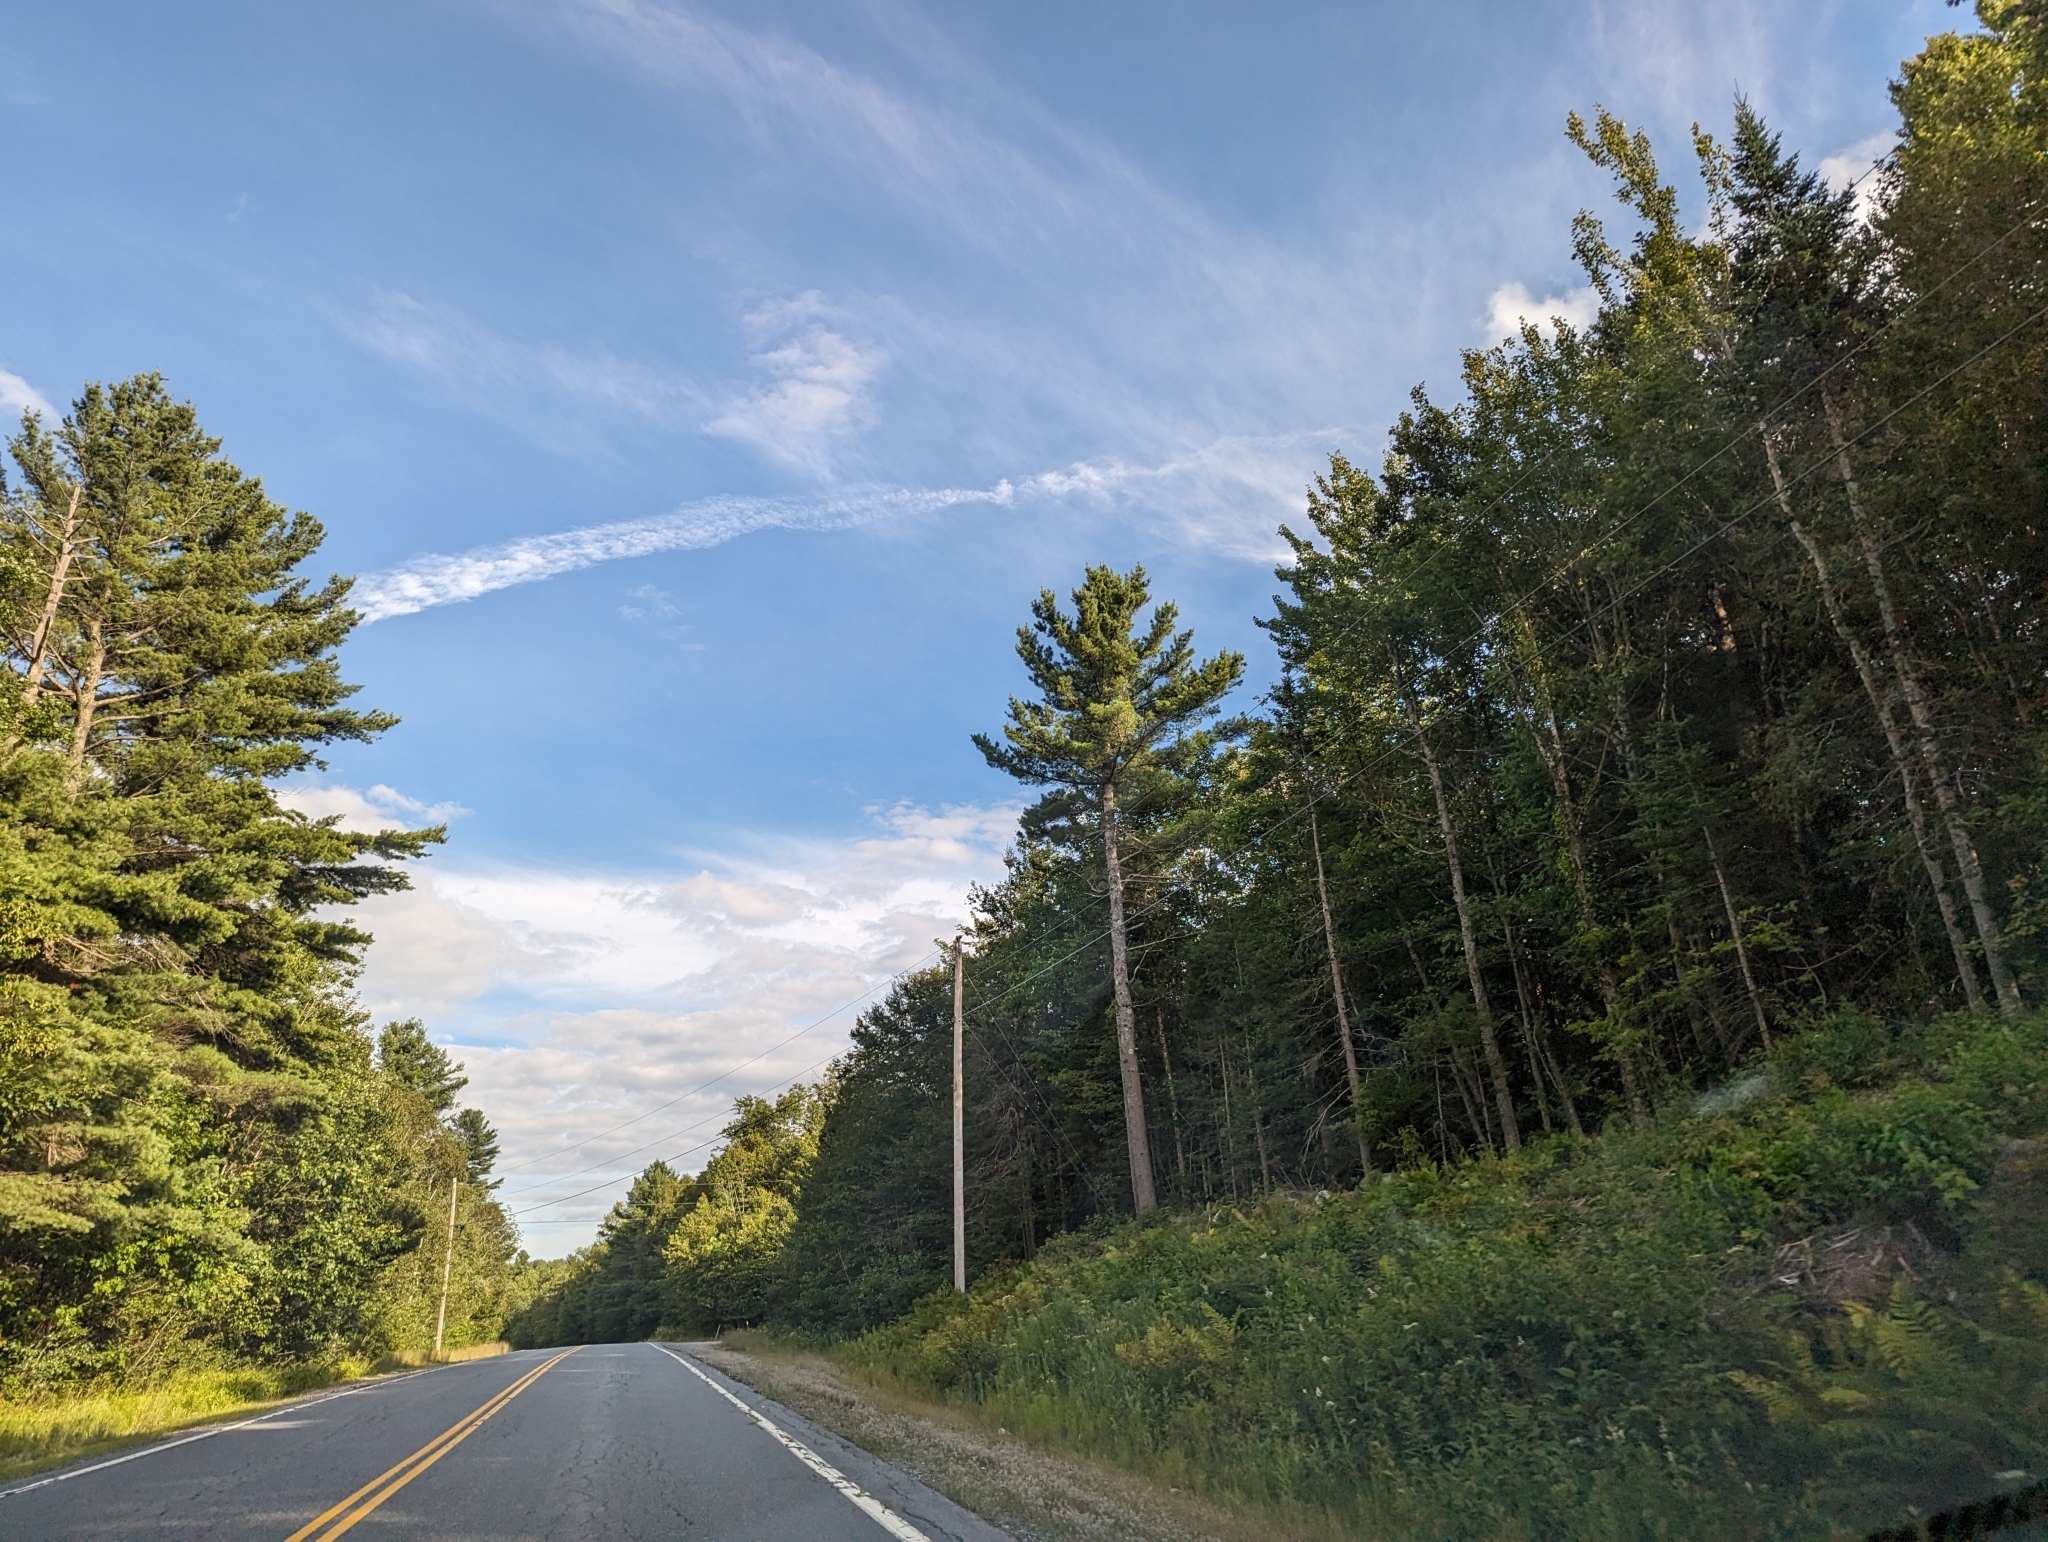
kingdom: Plantae
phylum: Tracheophyta
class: Pinopsida
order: Pinales
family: Pinaceae
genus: Pinus
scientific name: Pinus strobus
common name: Weymouth pine
